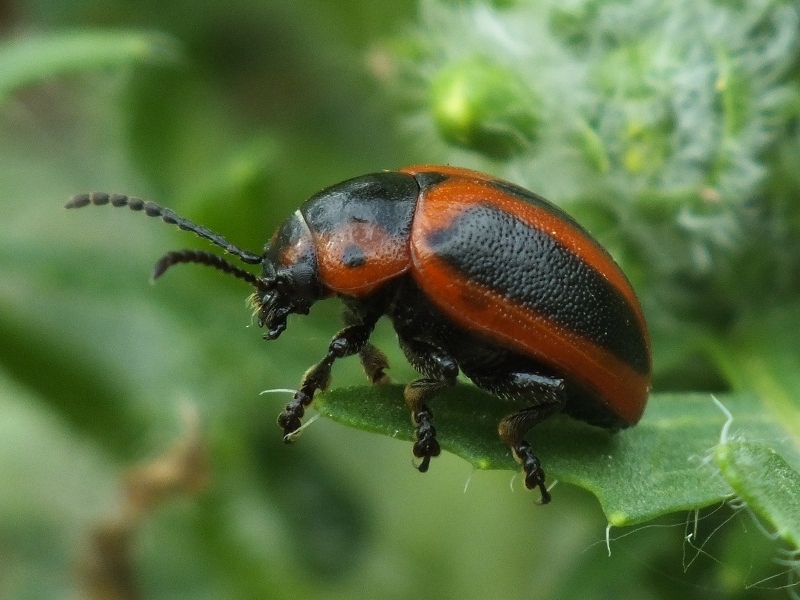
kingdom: Animalia
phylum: Arthropoda
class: Insecta
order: Coleoptera
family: Chrysomelidae
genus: Entomoscelis
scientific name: Entomoscelis adonidis
